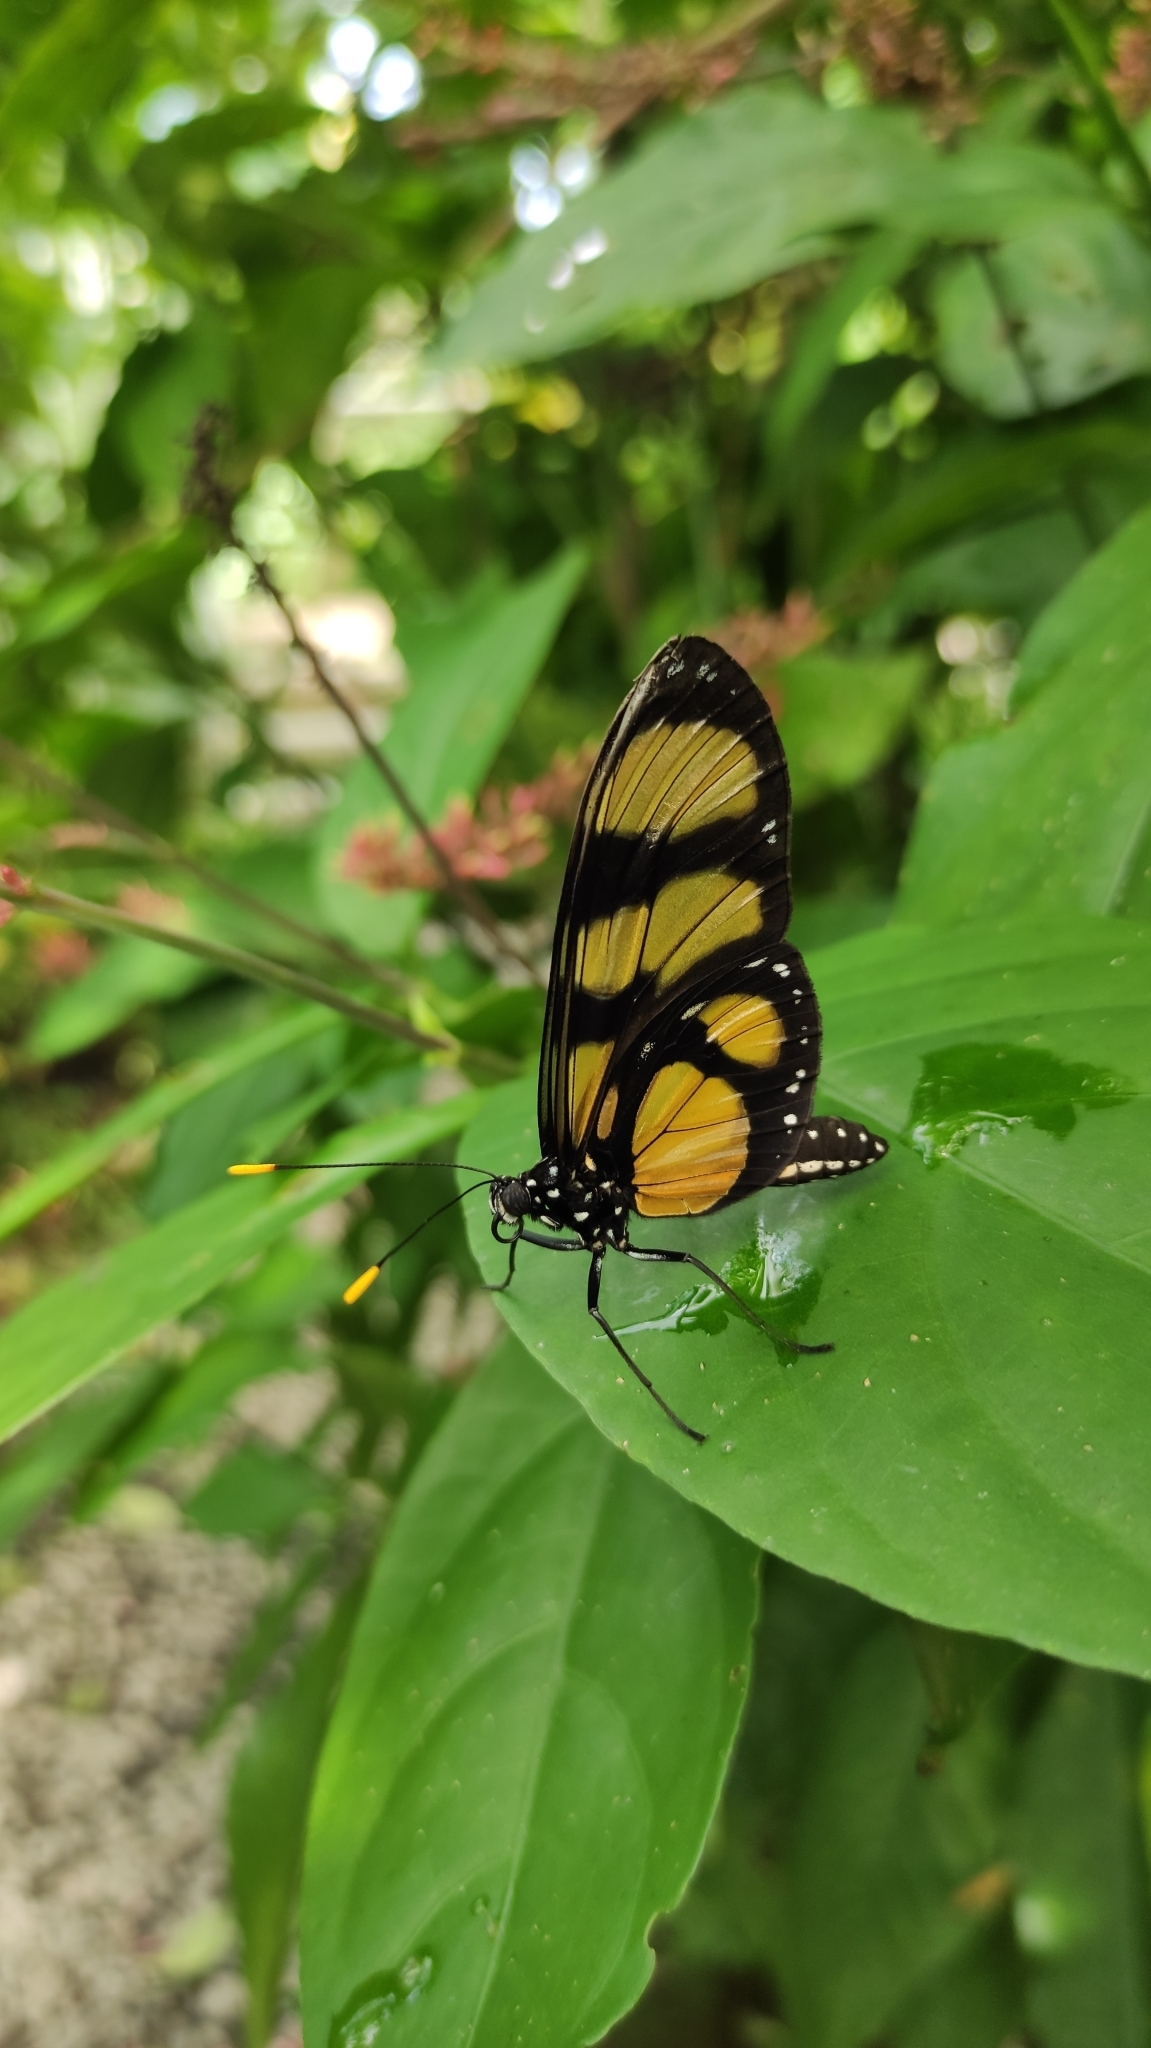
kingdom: Animalia
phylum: Arthropoda
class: Insecta
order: Lepidoptera
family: Nymphalidae
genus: Methona
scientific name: Methona confusa
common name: Confusa tigerwing
